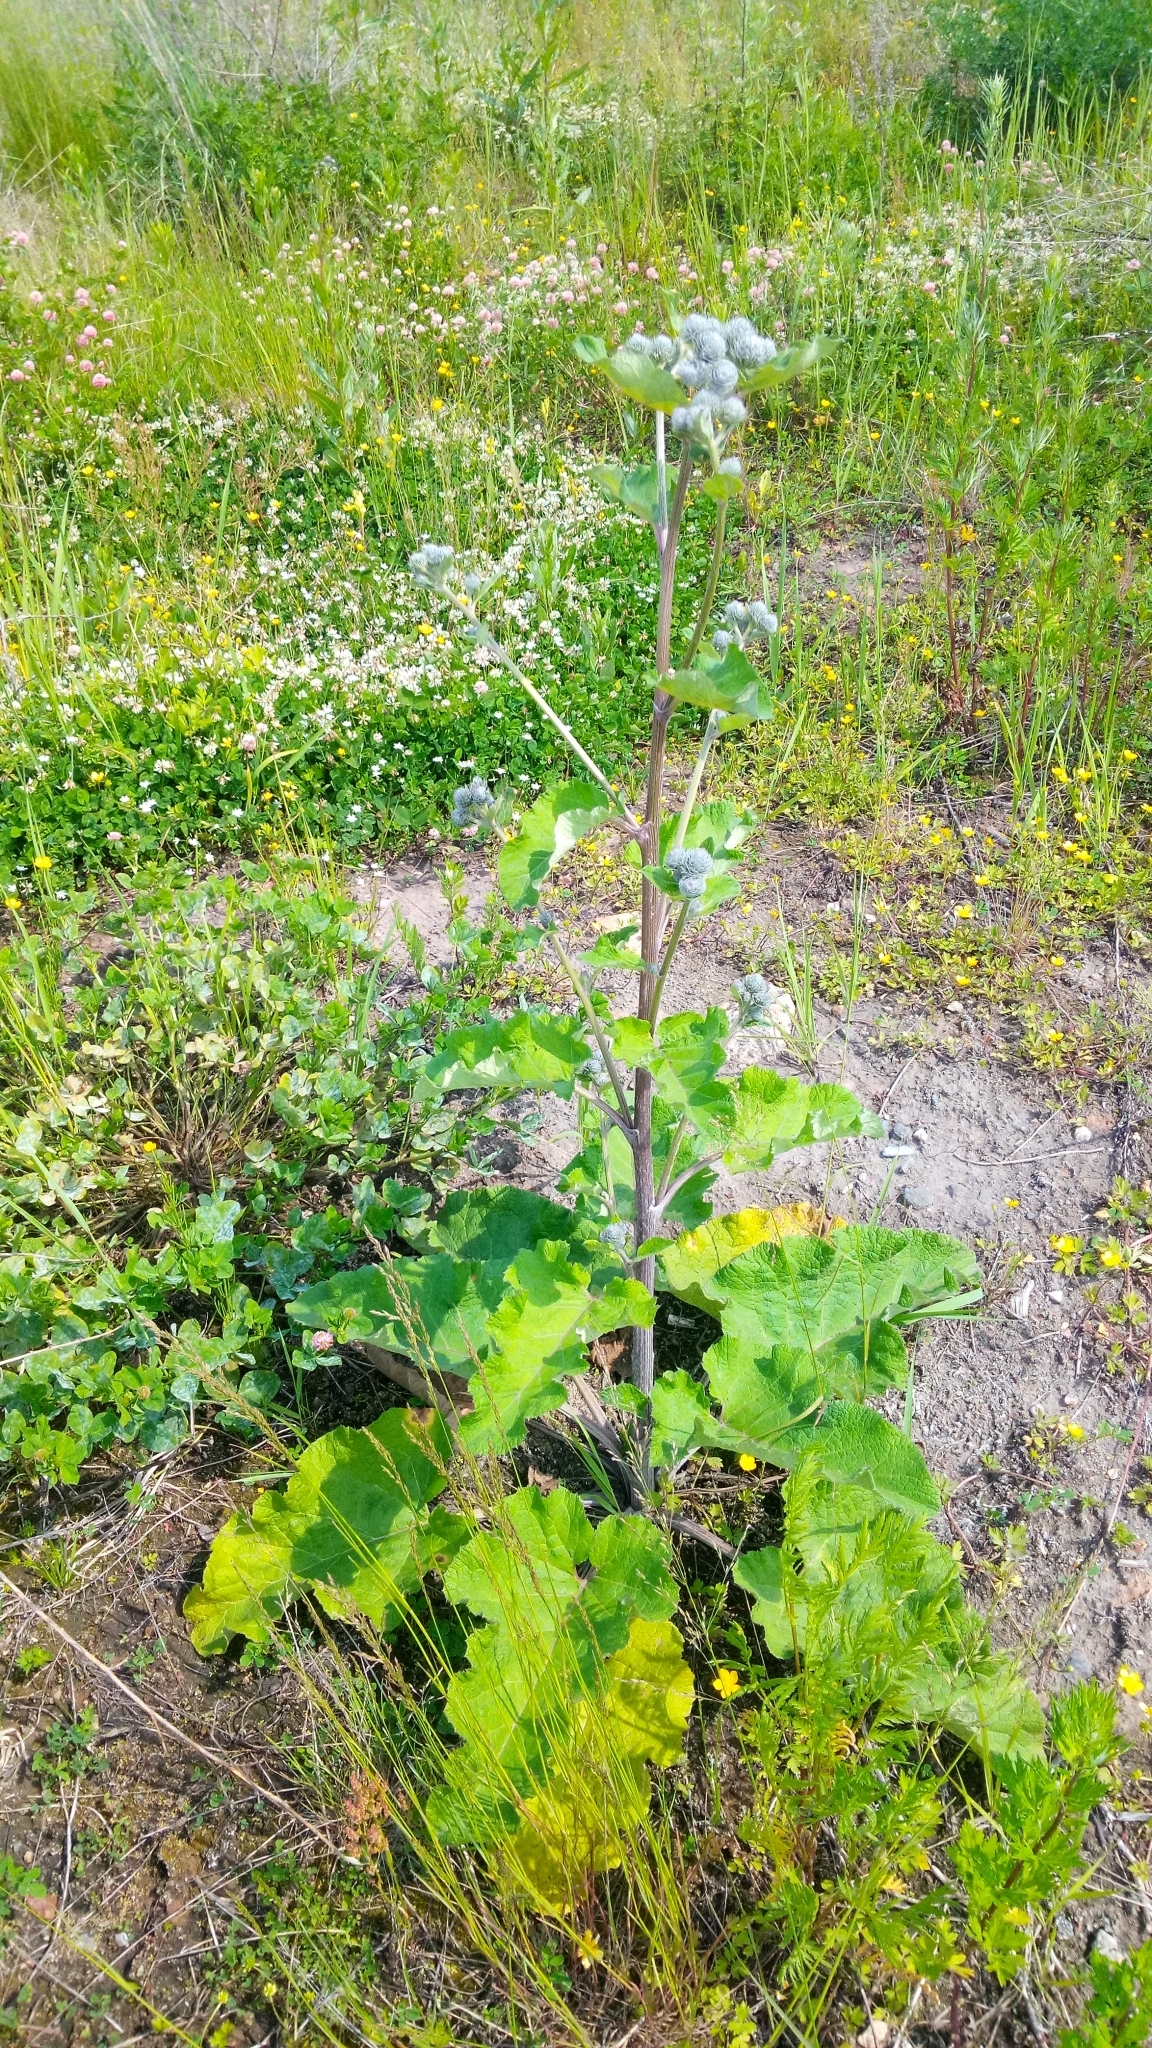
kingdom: Plantae
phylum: Tracheophyta
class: Magnoliopsida
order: Asterales
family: Asteraceae
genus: Arctium
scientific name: Arctium tomentosum
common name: Woolly burdock
